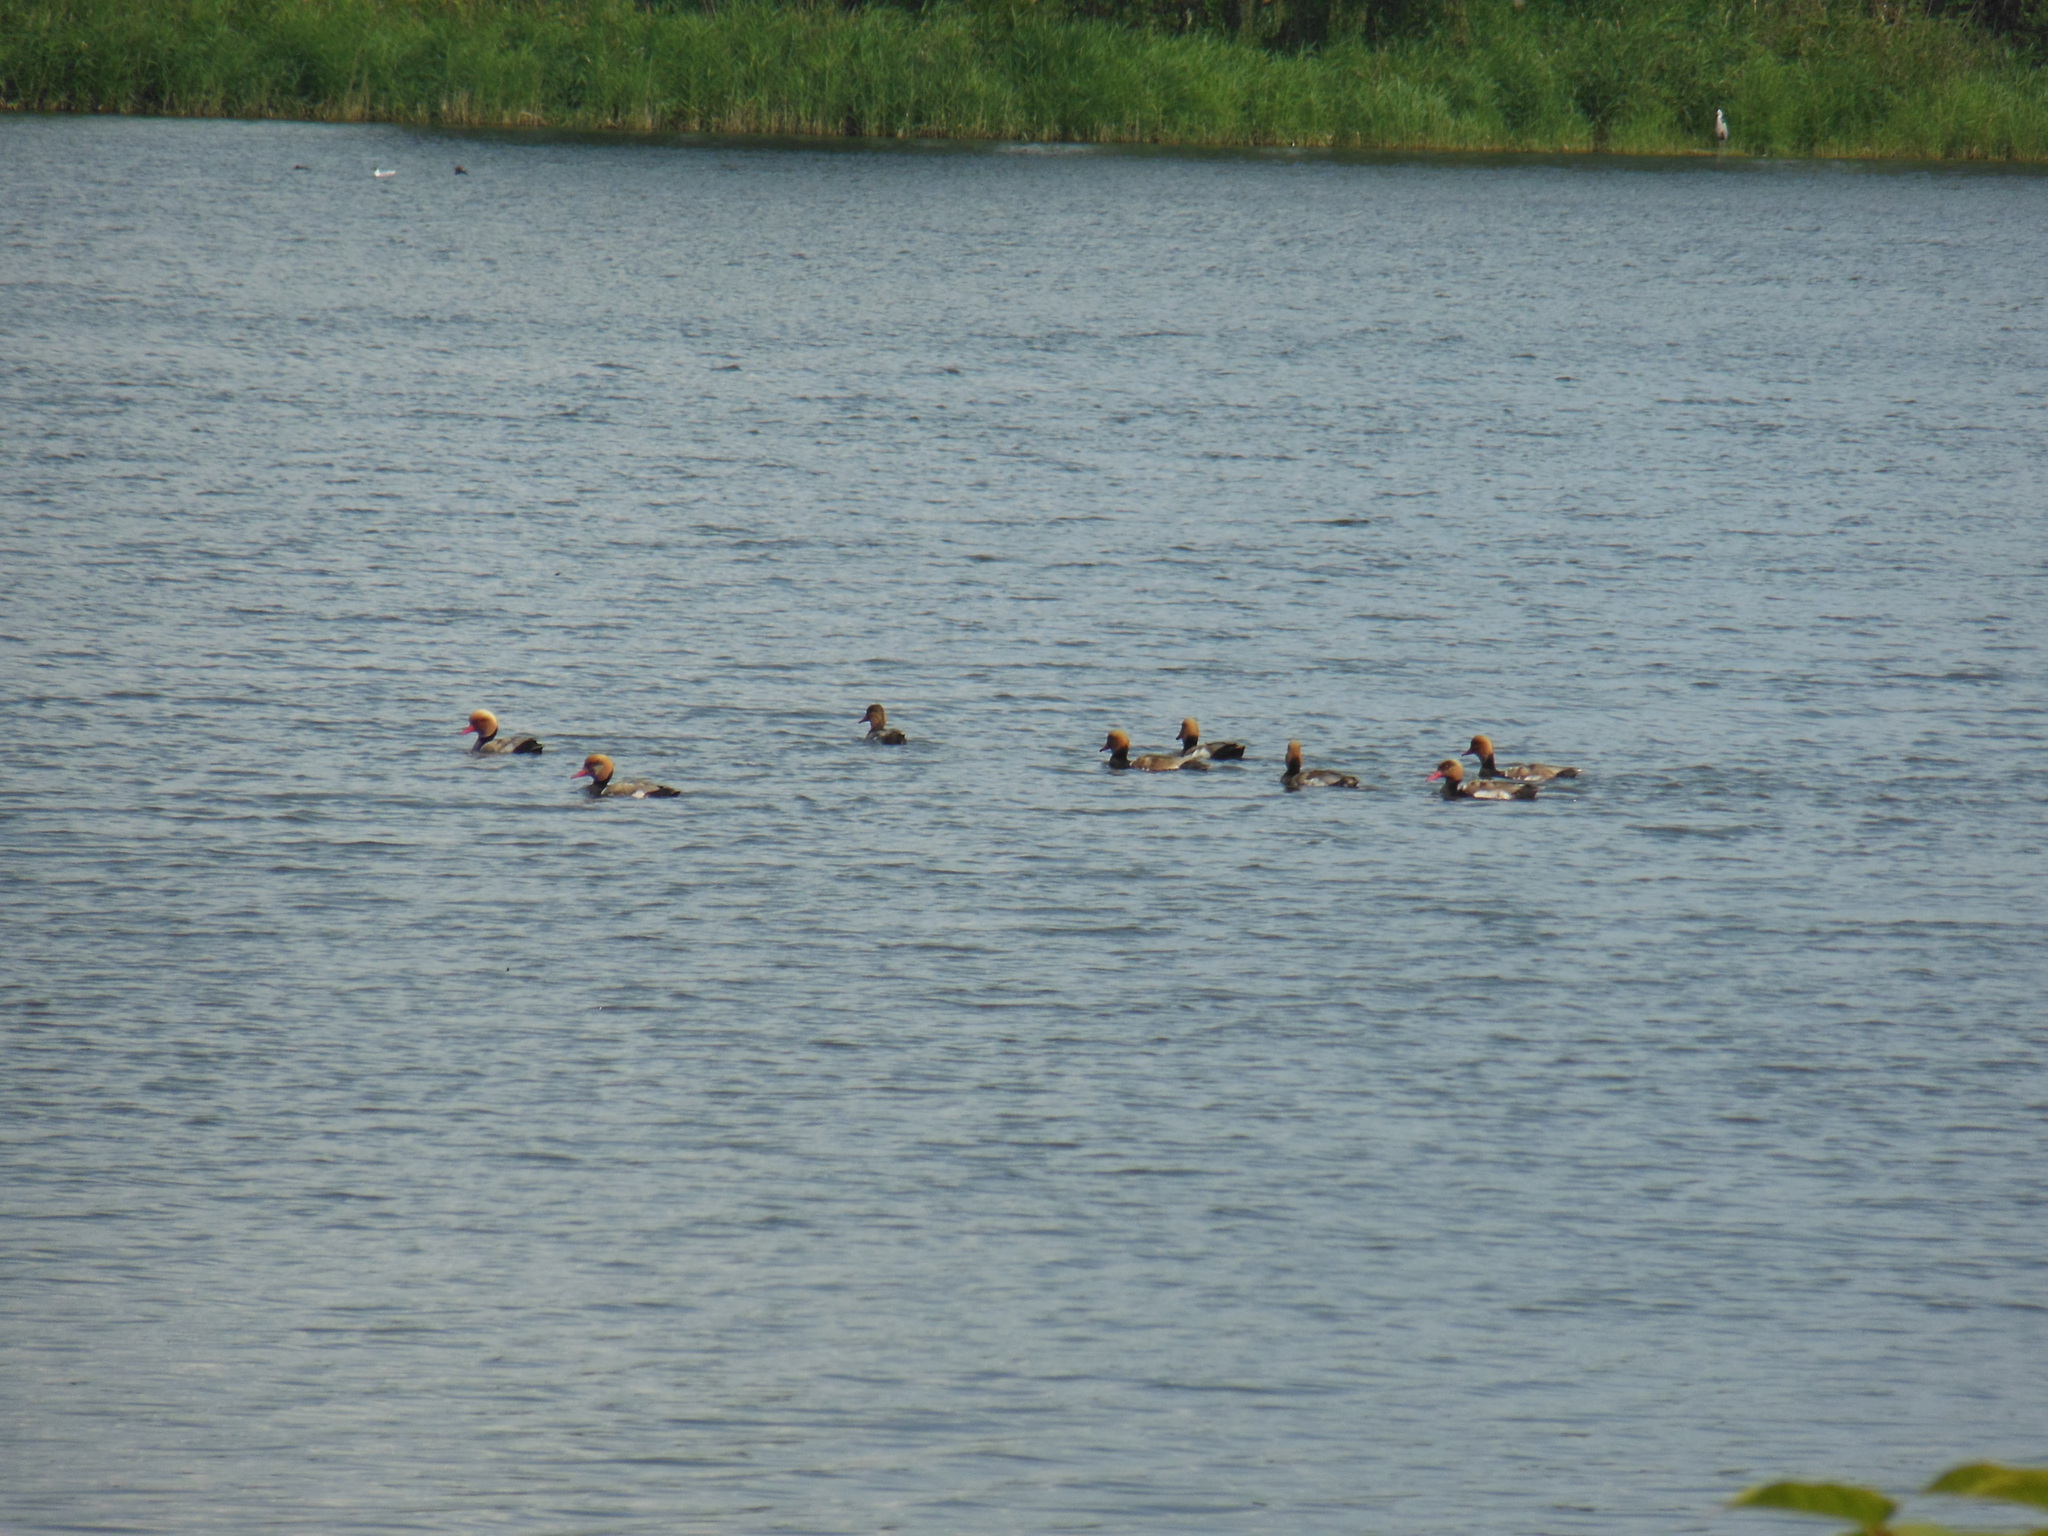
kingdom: Animalia
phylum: Chordata
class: Aves
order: Anseriformes
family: Anatidae
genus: Netta
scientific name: Netta rufina
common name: Red-crested pochard
